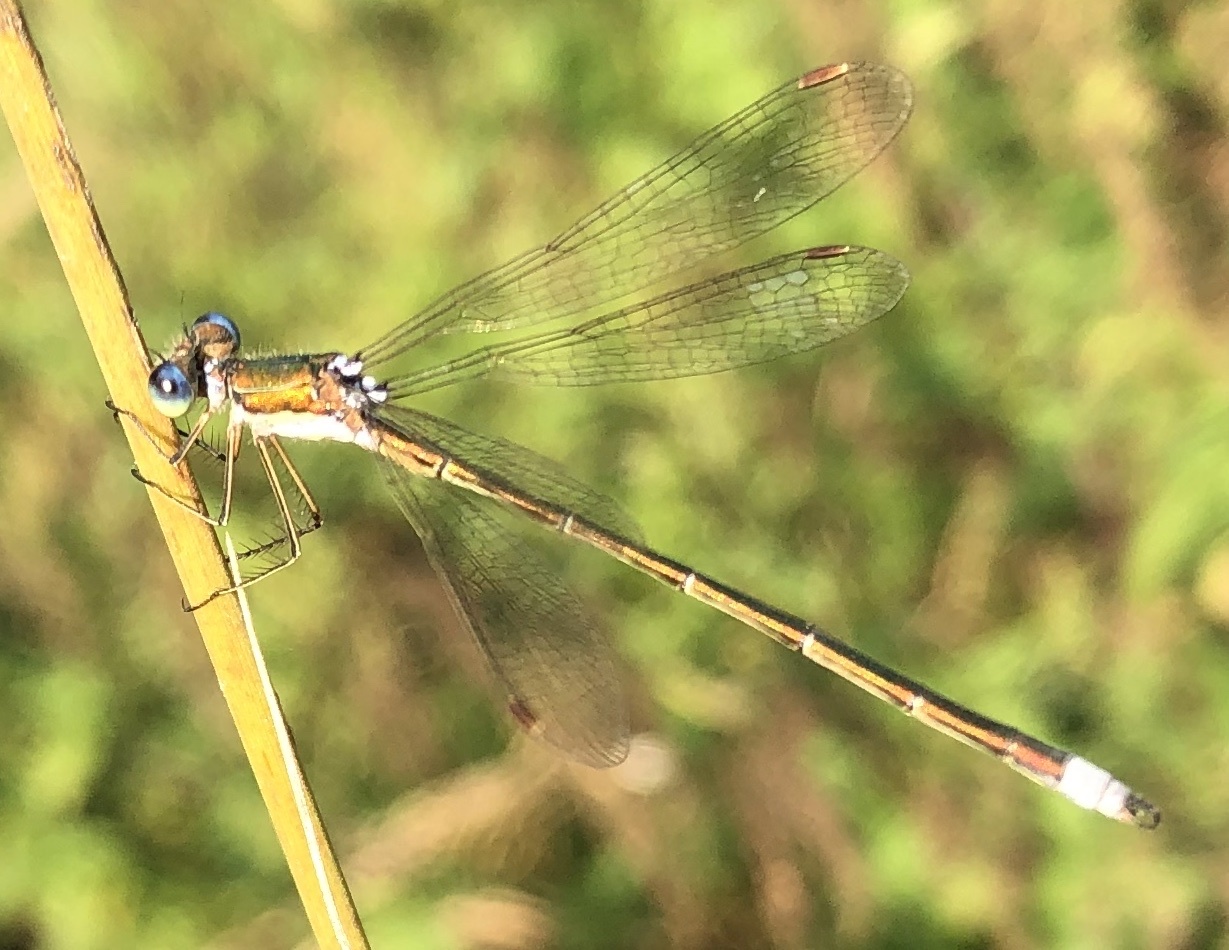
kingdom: Animalia
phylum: Arthropoda
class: Insecta
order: Odonata
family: Lestidae
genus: Lestes
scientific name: Lestes virens
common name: Small emerald spreadwing
